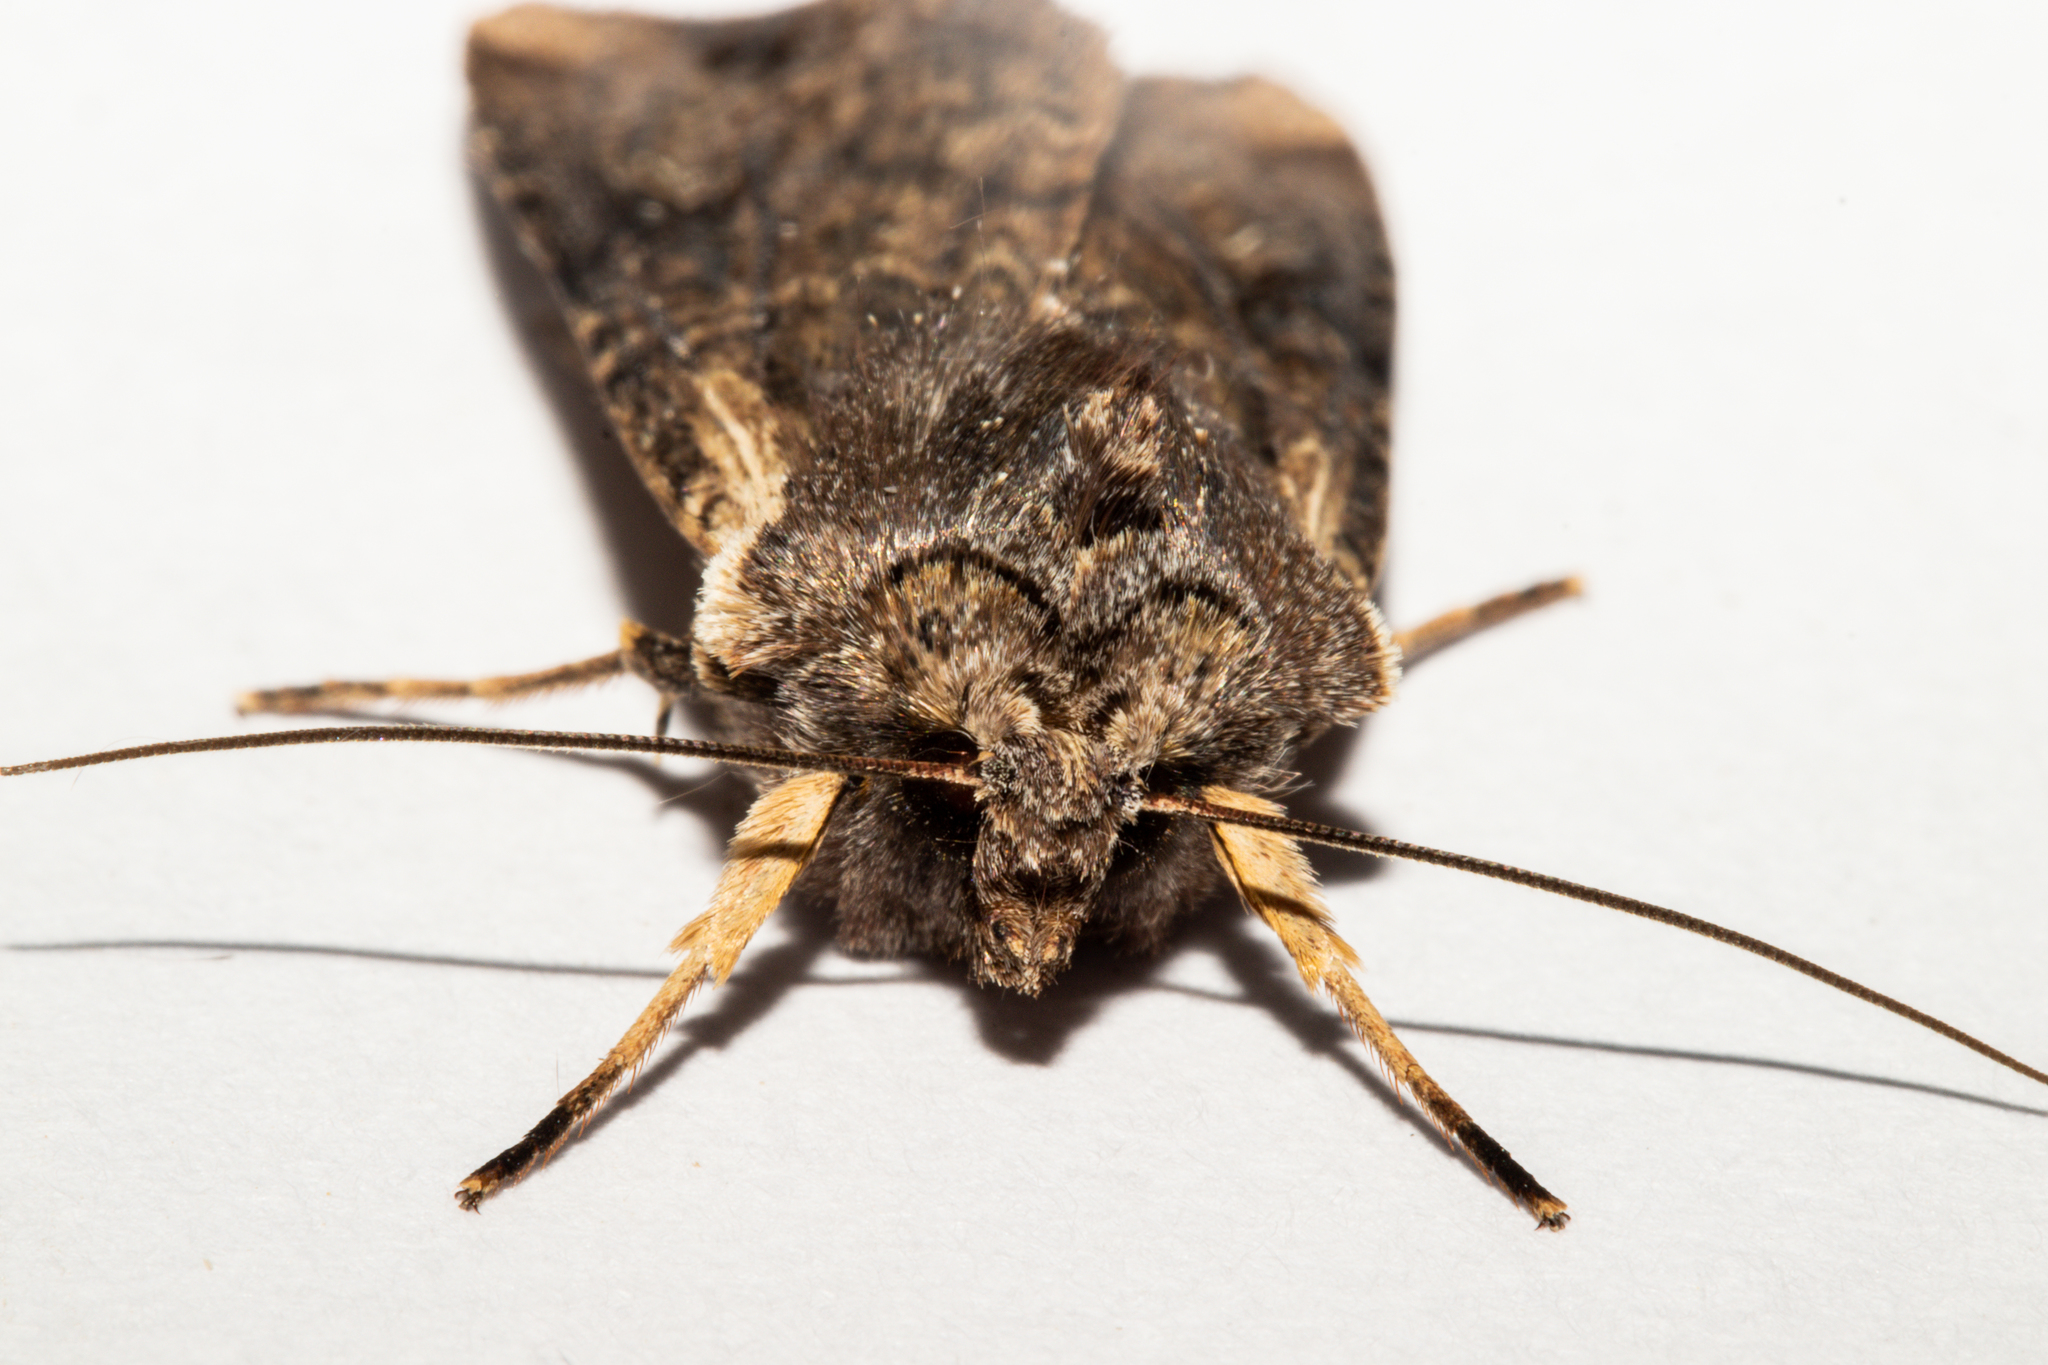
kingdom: Animalia
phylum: Arthropoda
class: Insecta
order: Lepidoptera
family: Noctuidae
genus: Ichneutica
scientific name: Ichneutica omoplaca
